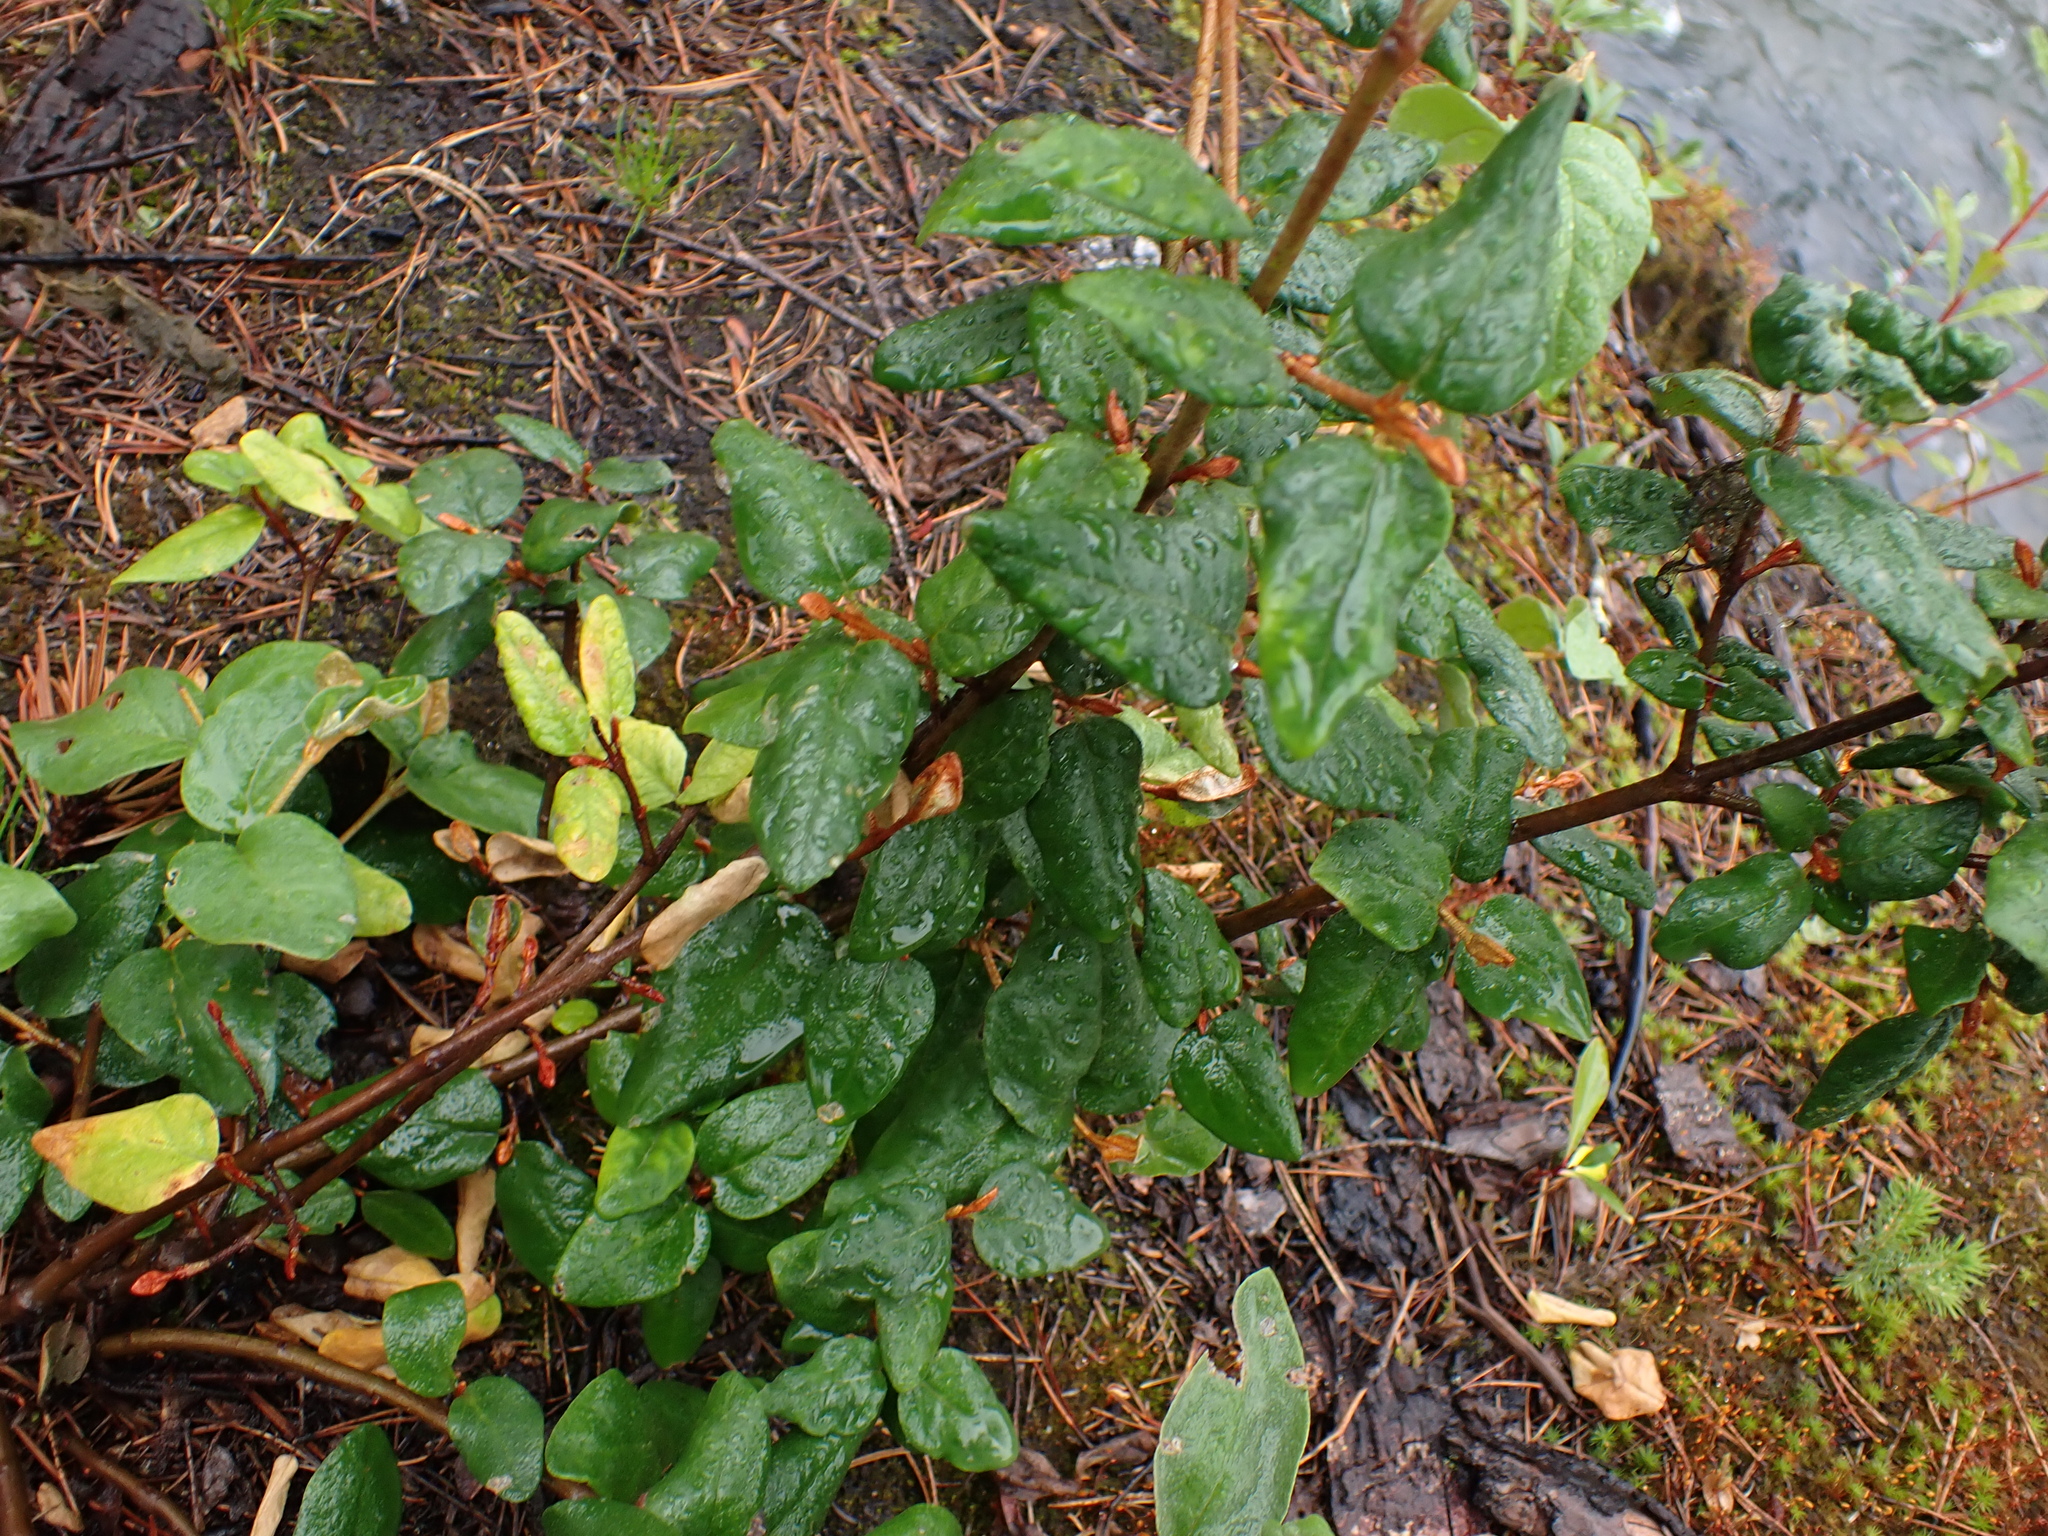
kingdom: Plantae
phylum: Tracheophyta
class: Magnoliopsida
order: Rosales
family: Elaeagnaceae
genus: Shepherdia
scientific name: Shepherdia canadensis
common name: Soapberry
